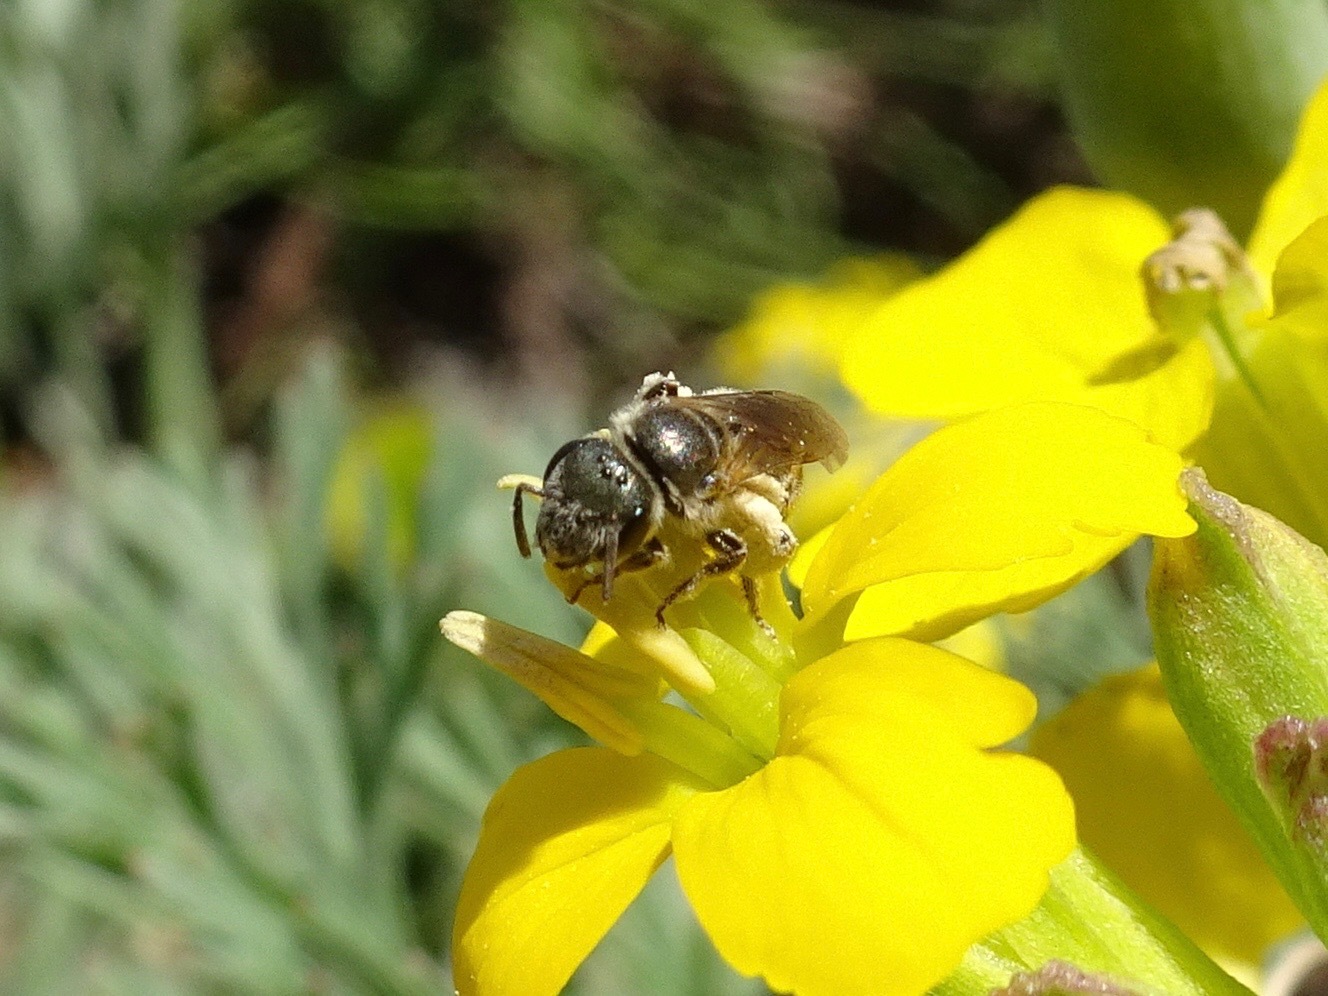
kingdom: Animalia
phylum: Arthropoda
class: Insecta
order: Hymenoptera
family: Halictidae
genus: Halictus
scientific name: Halictus tripartitus
